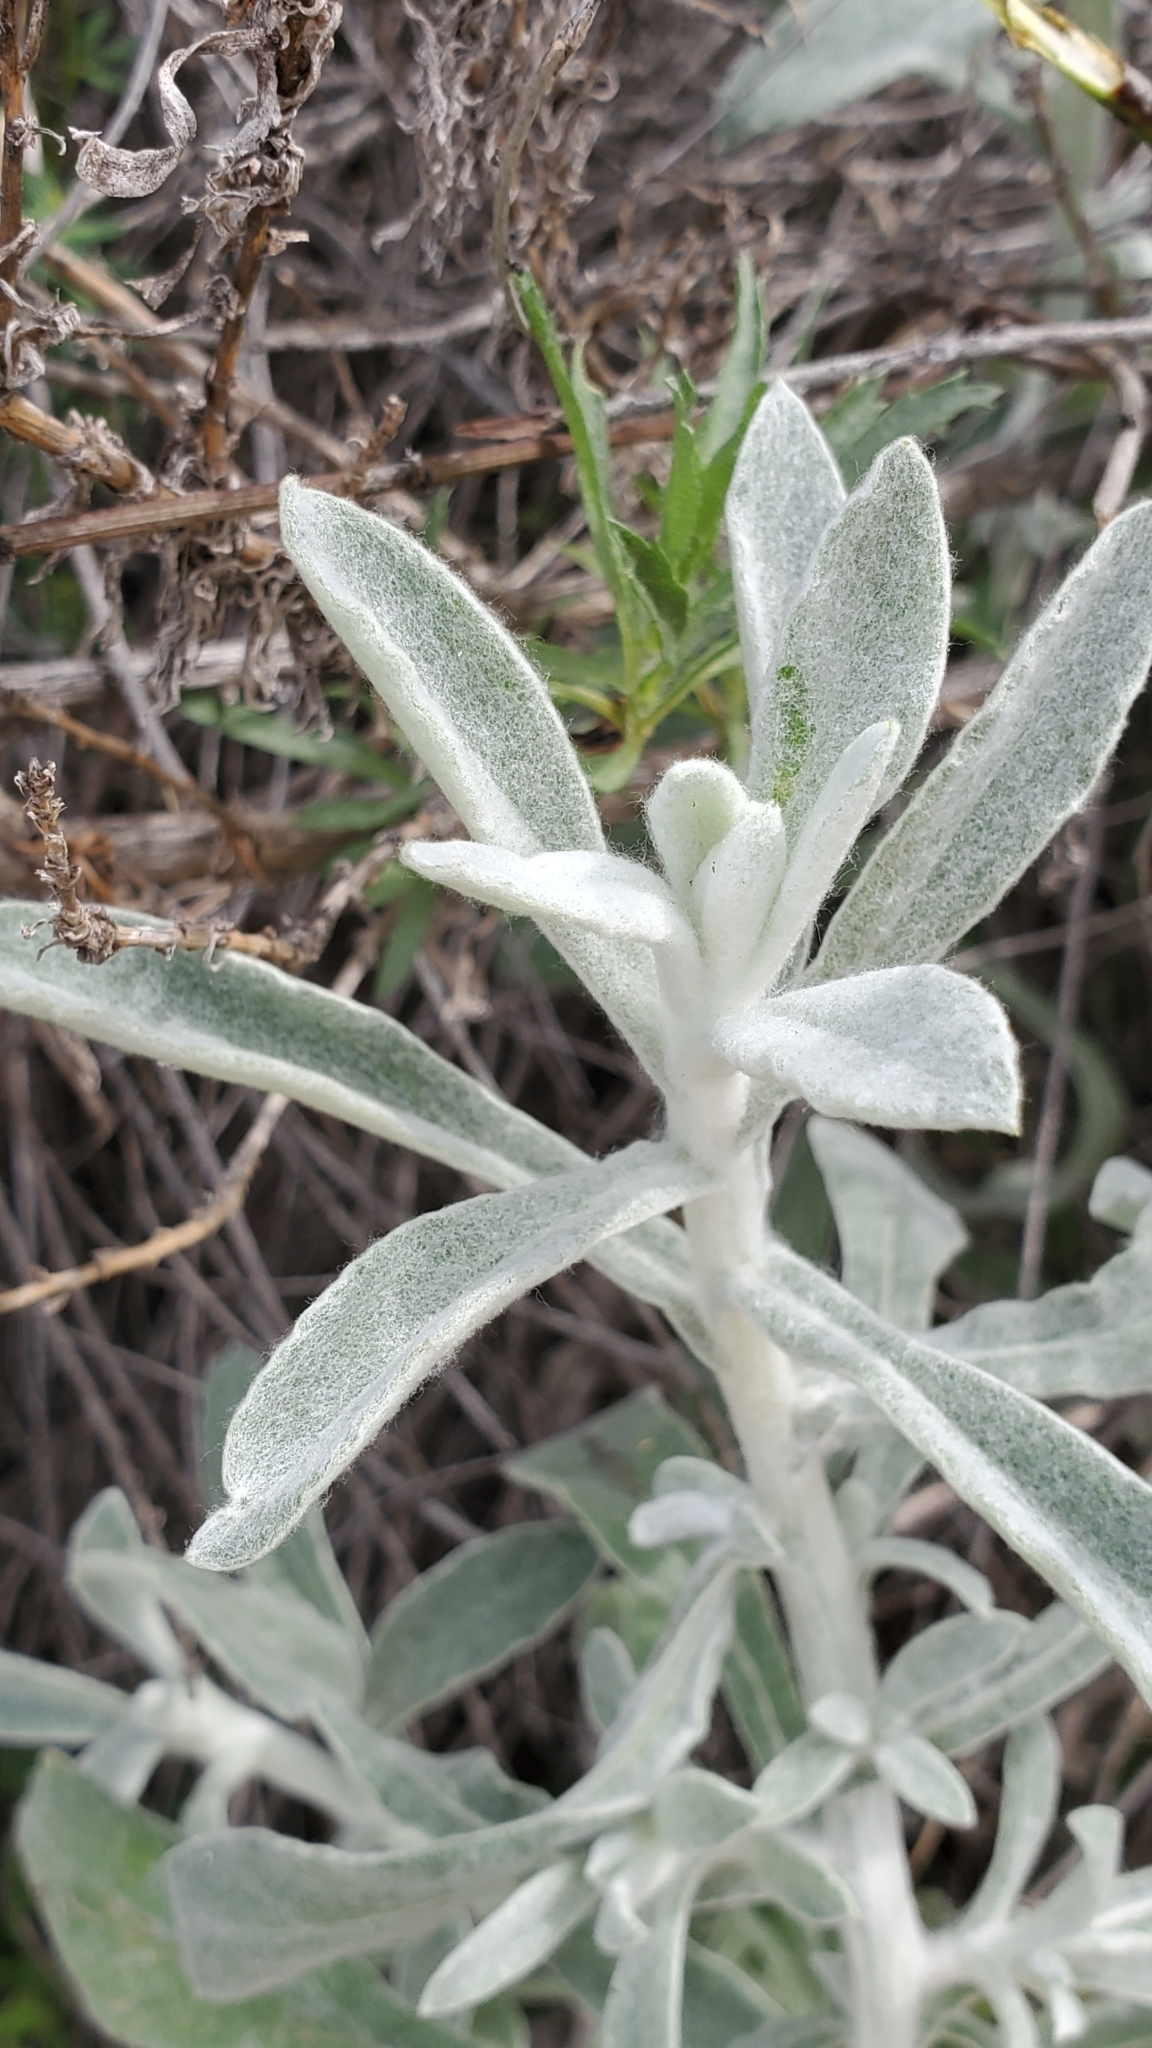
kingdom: Plantae
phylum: Tracheophyta
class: Magnoliopsida
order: Asterales
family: Asteraceae
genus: Pseudognaphalium
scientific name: Pseudognaphalium microcephalum
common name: San diego rabbit-tobacco
